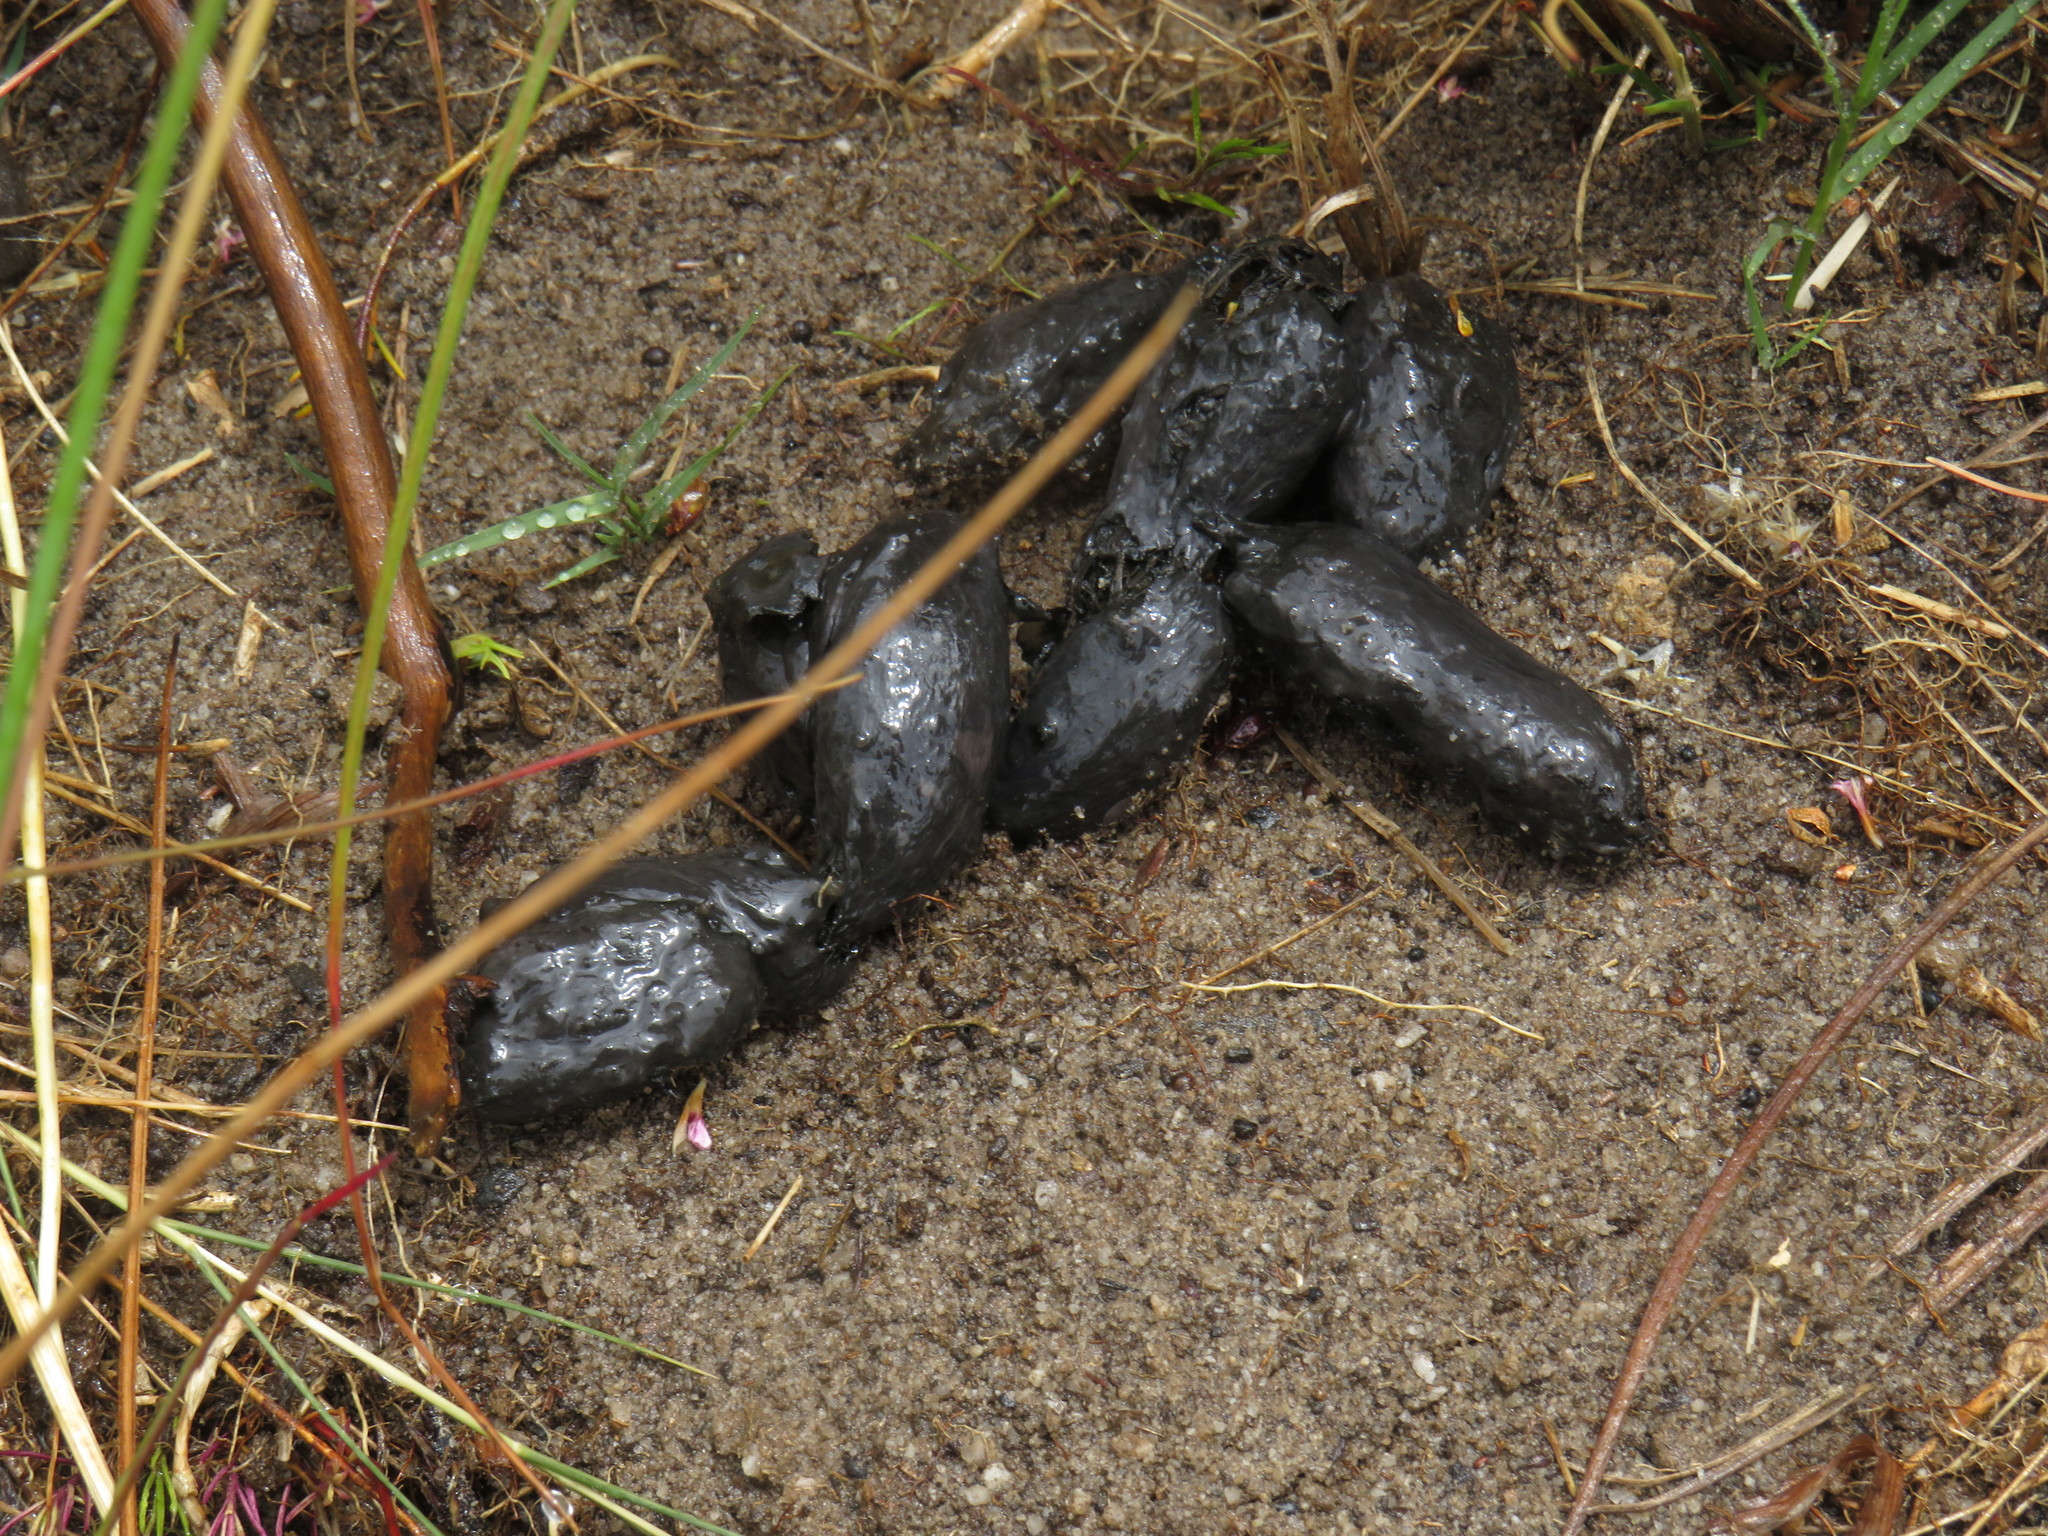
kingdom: Animalia
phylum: Chordata
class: Mammalia
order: Rodentia
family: Hystricidae
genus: Hystrix
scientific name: Hystrix africaeaustralis
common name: Cape porcupine
